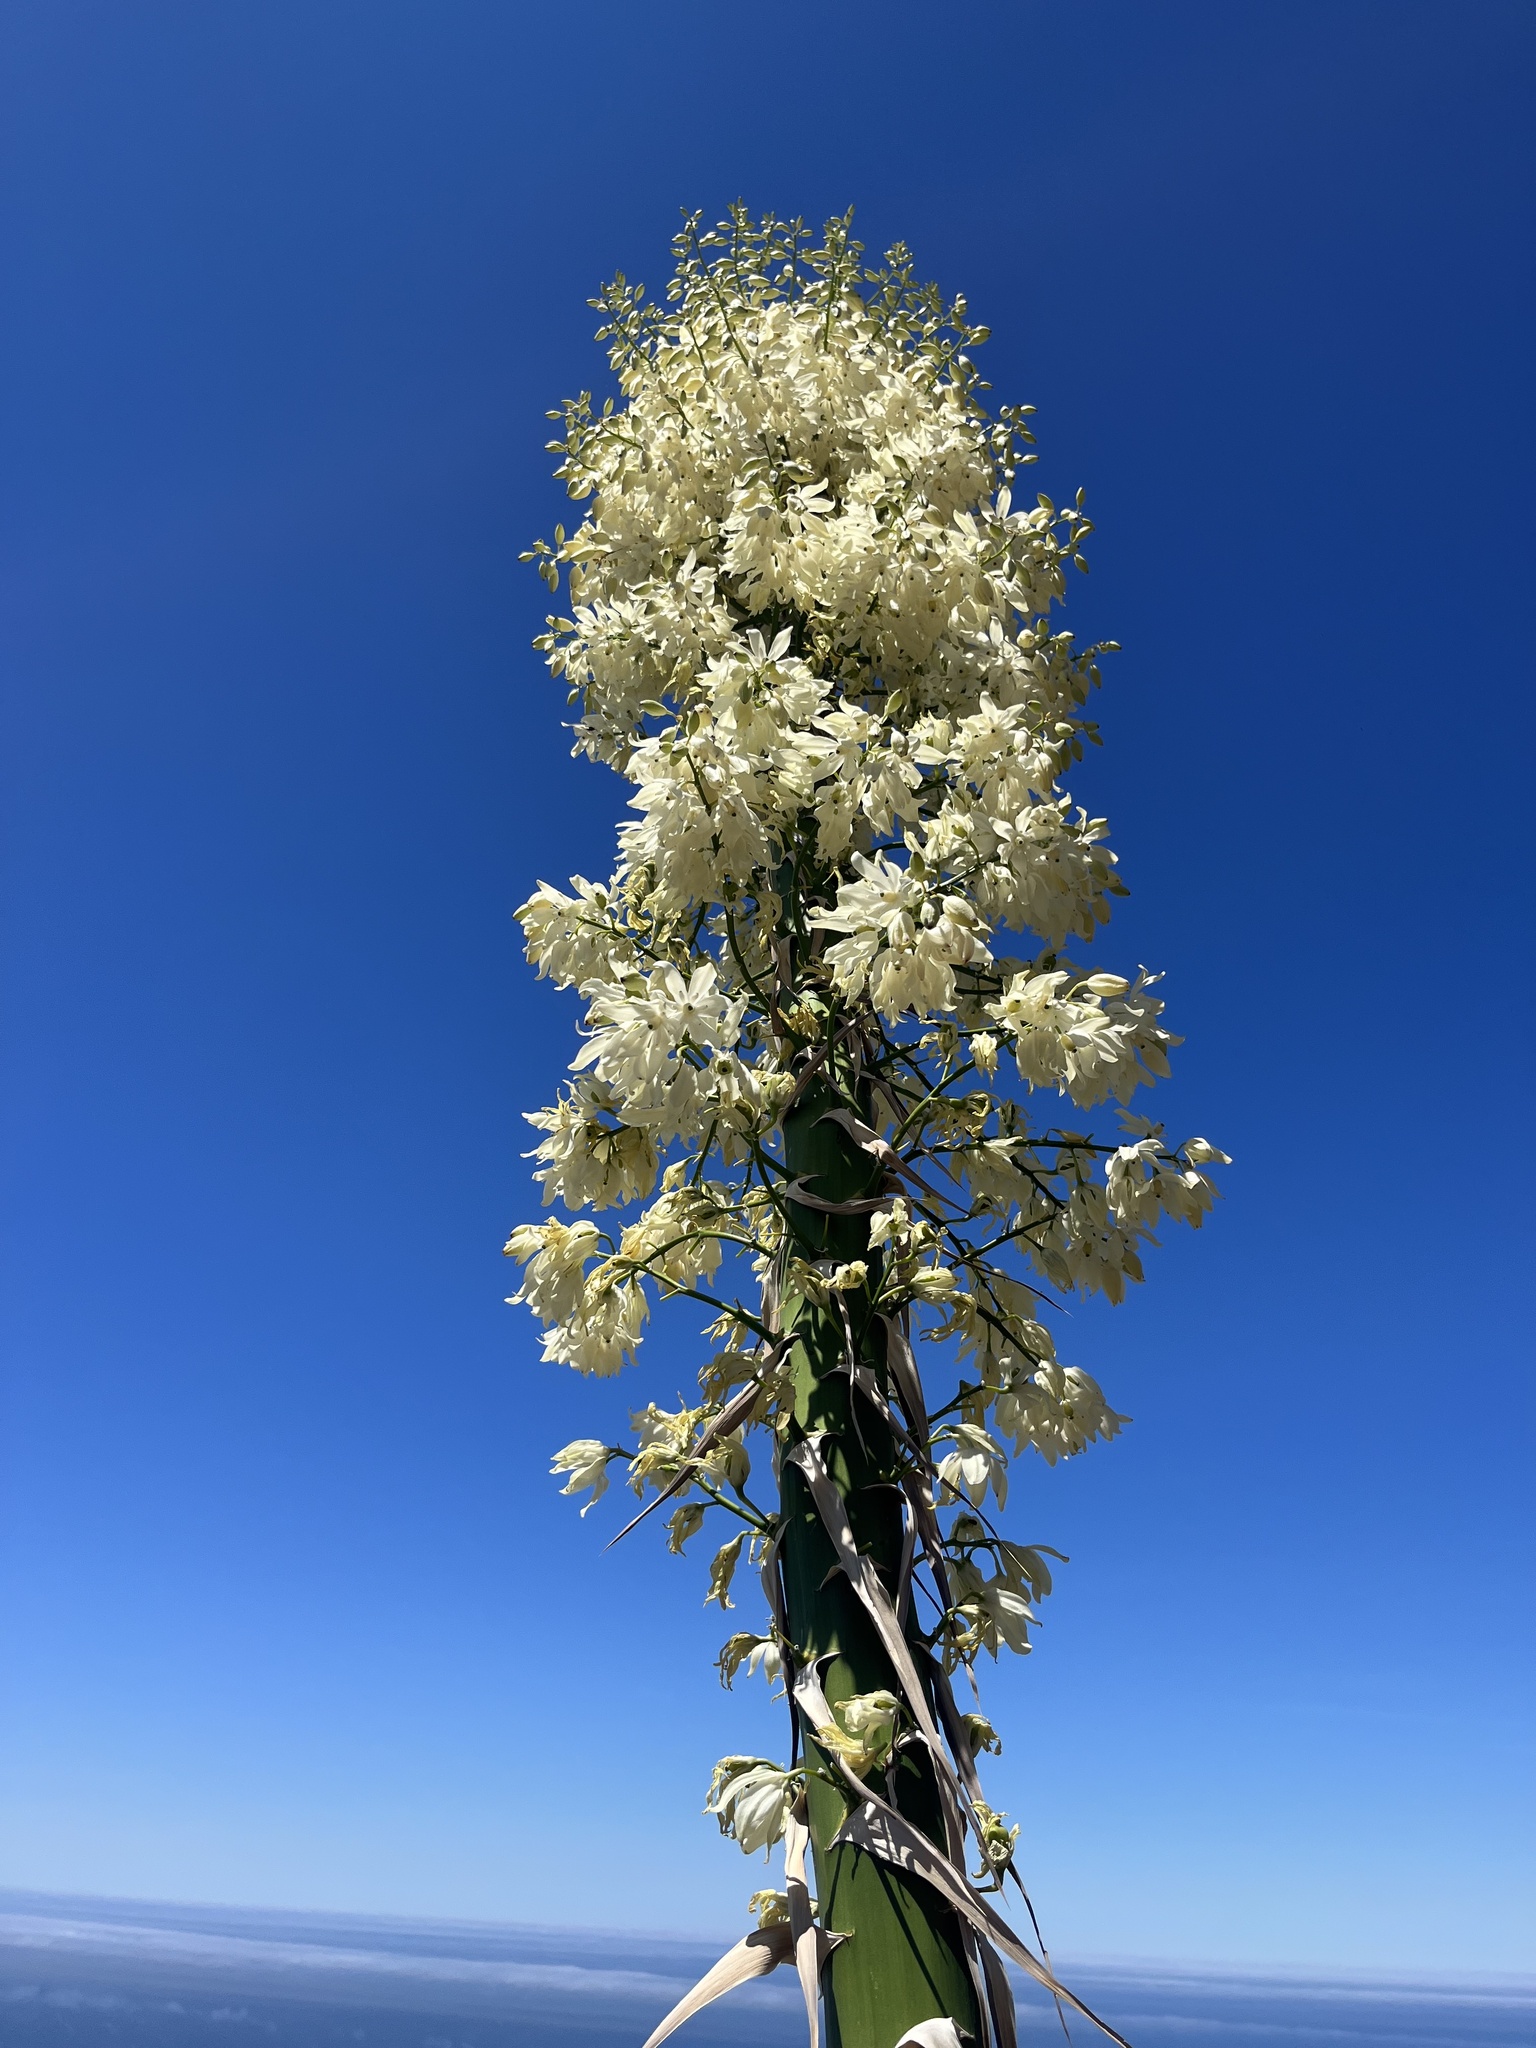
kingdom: Plantae
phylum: Tracheophyta
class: Liliopsida
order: Asparagales
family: Asparagaceae
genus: Hesperoyucca
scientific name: Hesperoyucca whipplei
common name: Our lord's-candle
